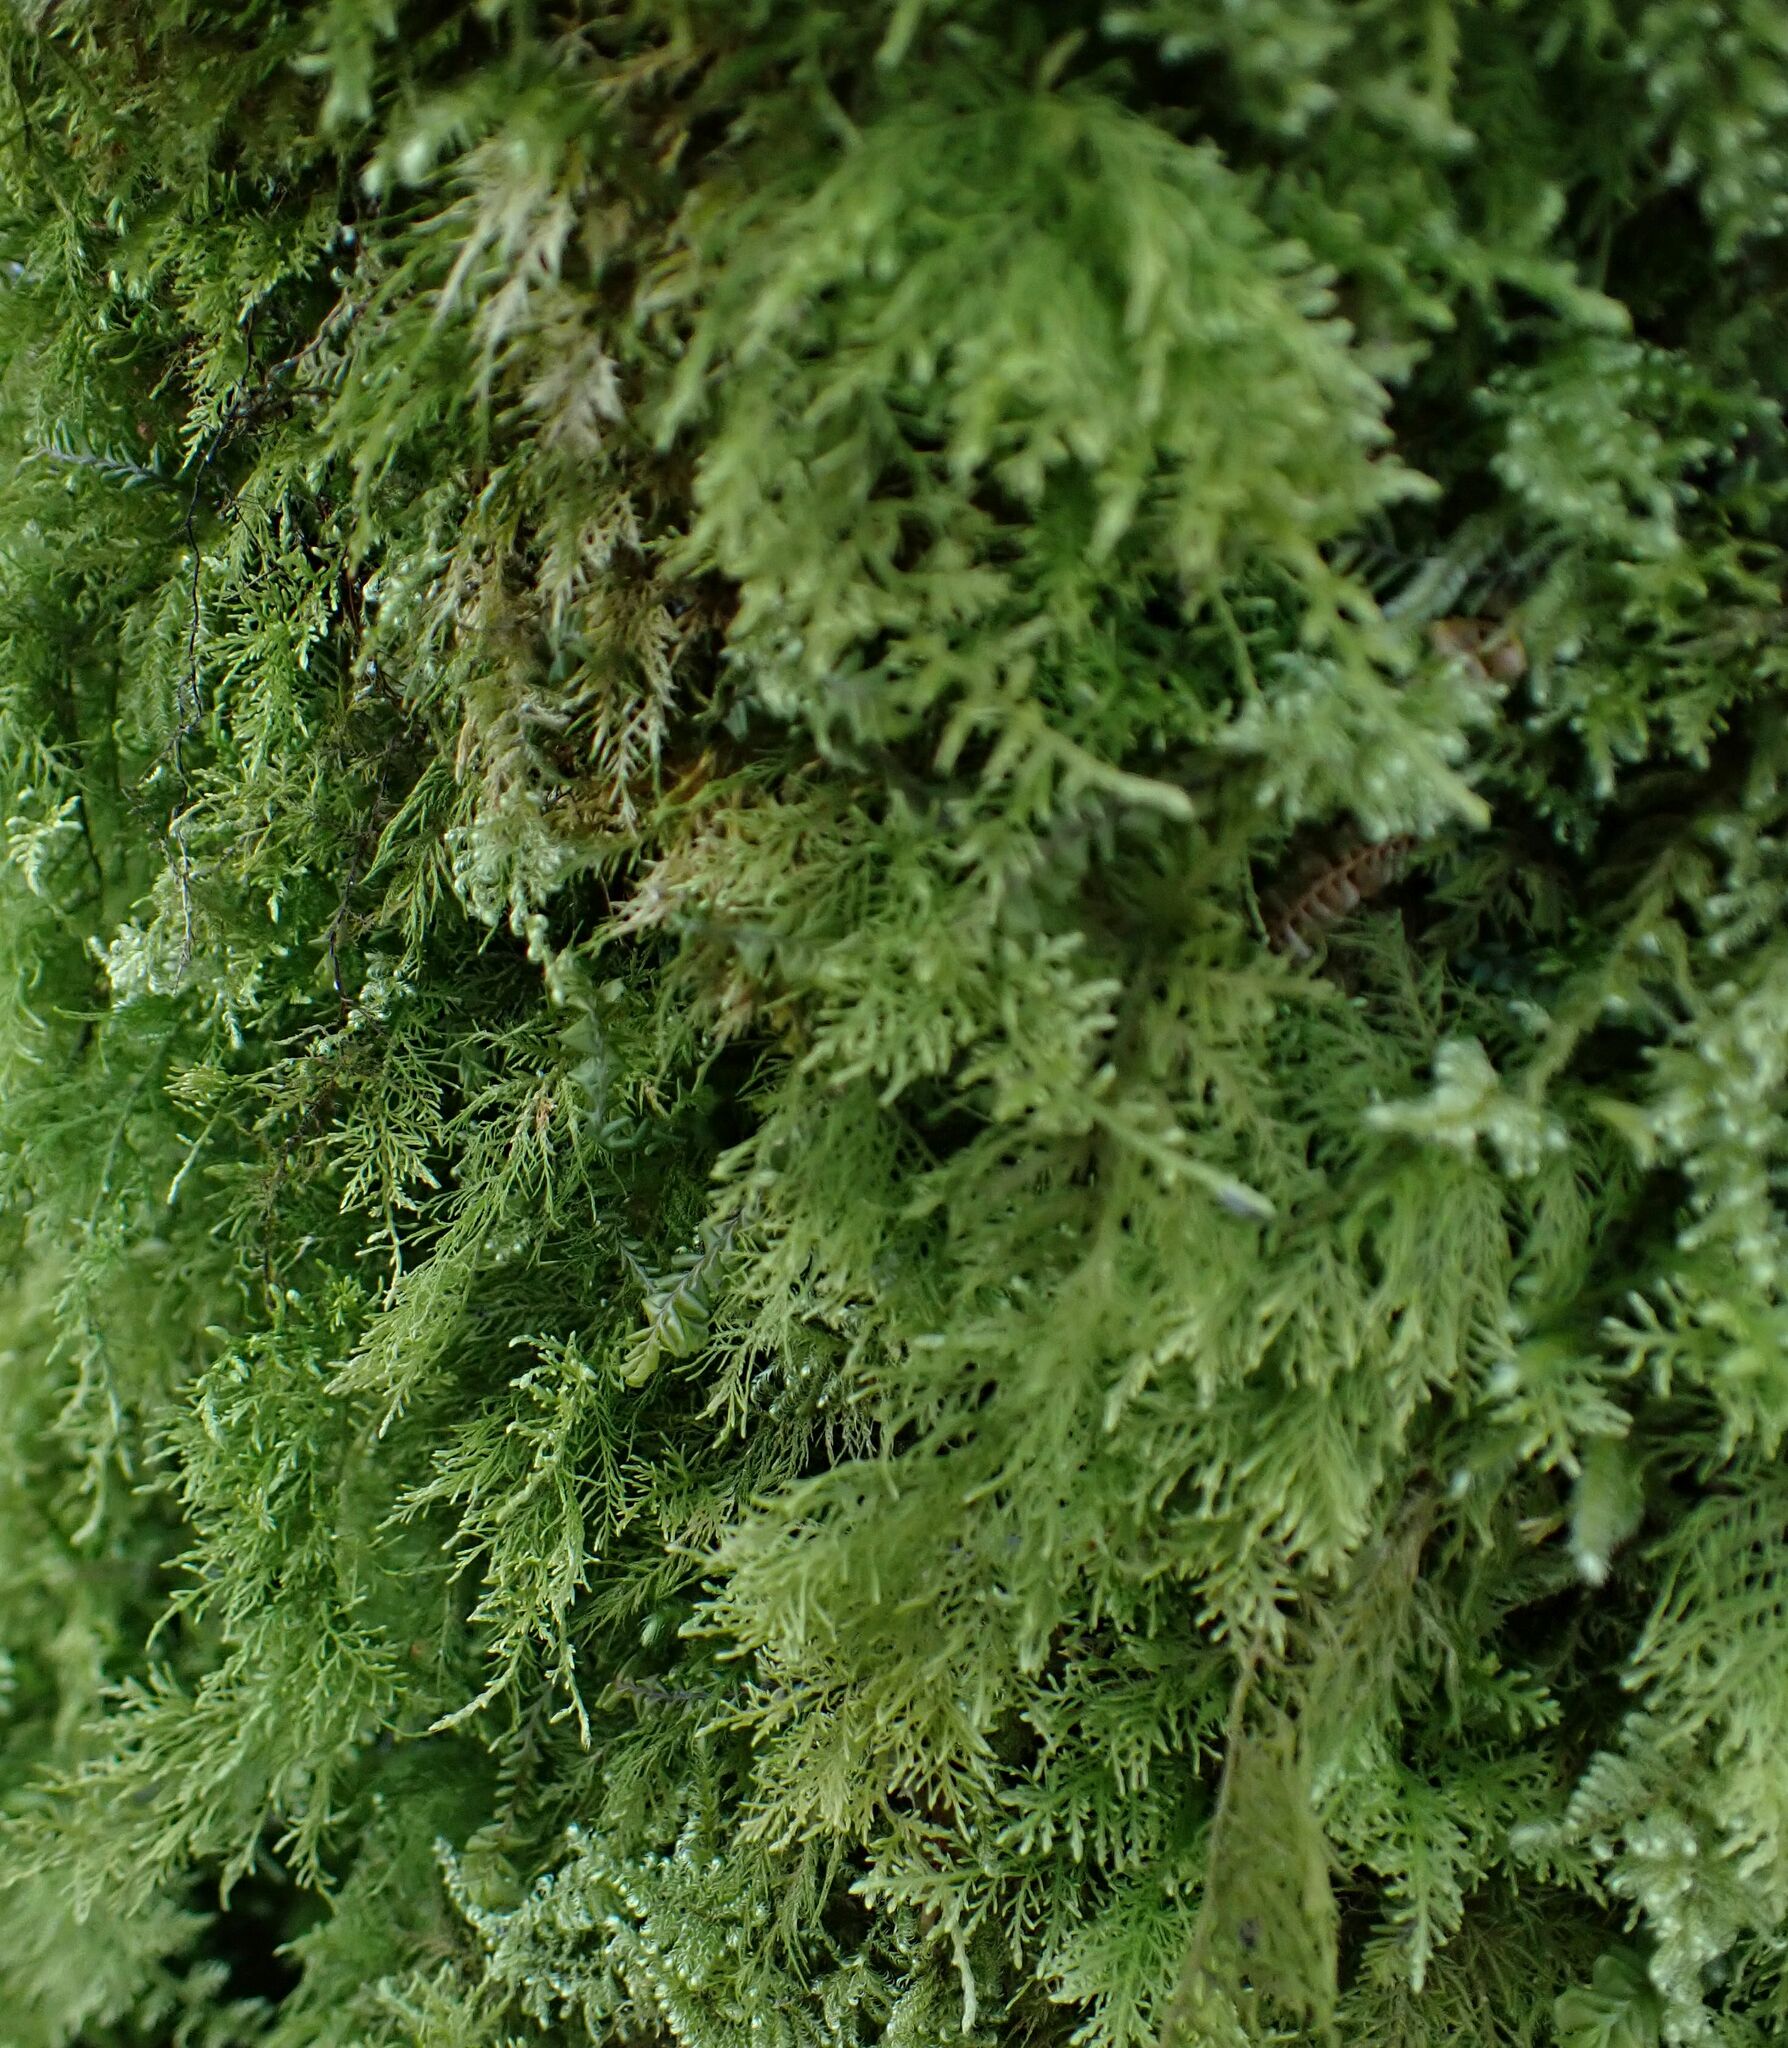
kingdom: Plantae
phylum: Bryophyta
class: Bryopsida
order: Hypnales
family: Thuidiaceae
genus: Thuidium
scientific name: Thuidium tamariscinum
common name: Common tamarisk-moss
